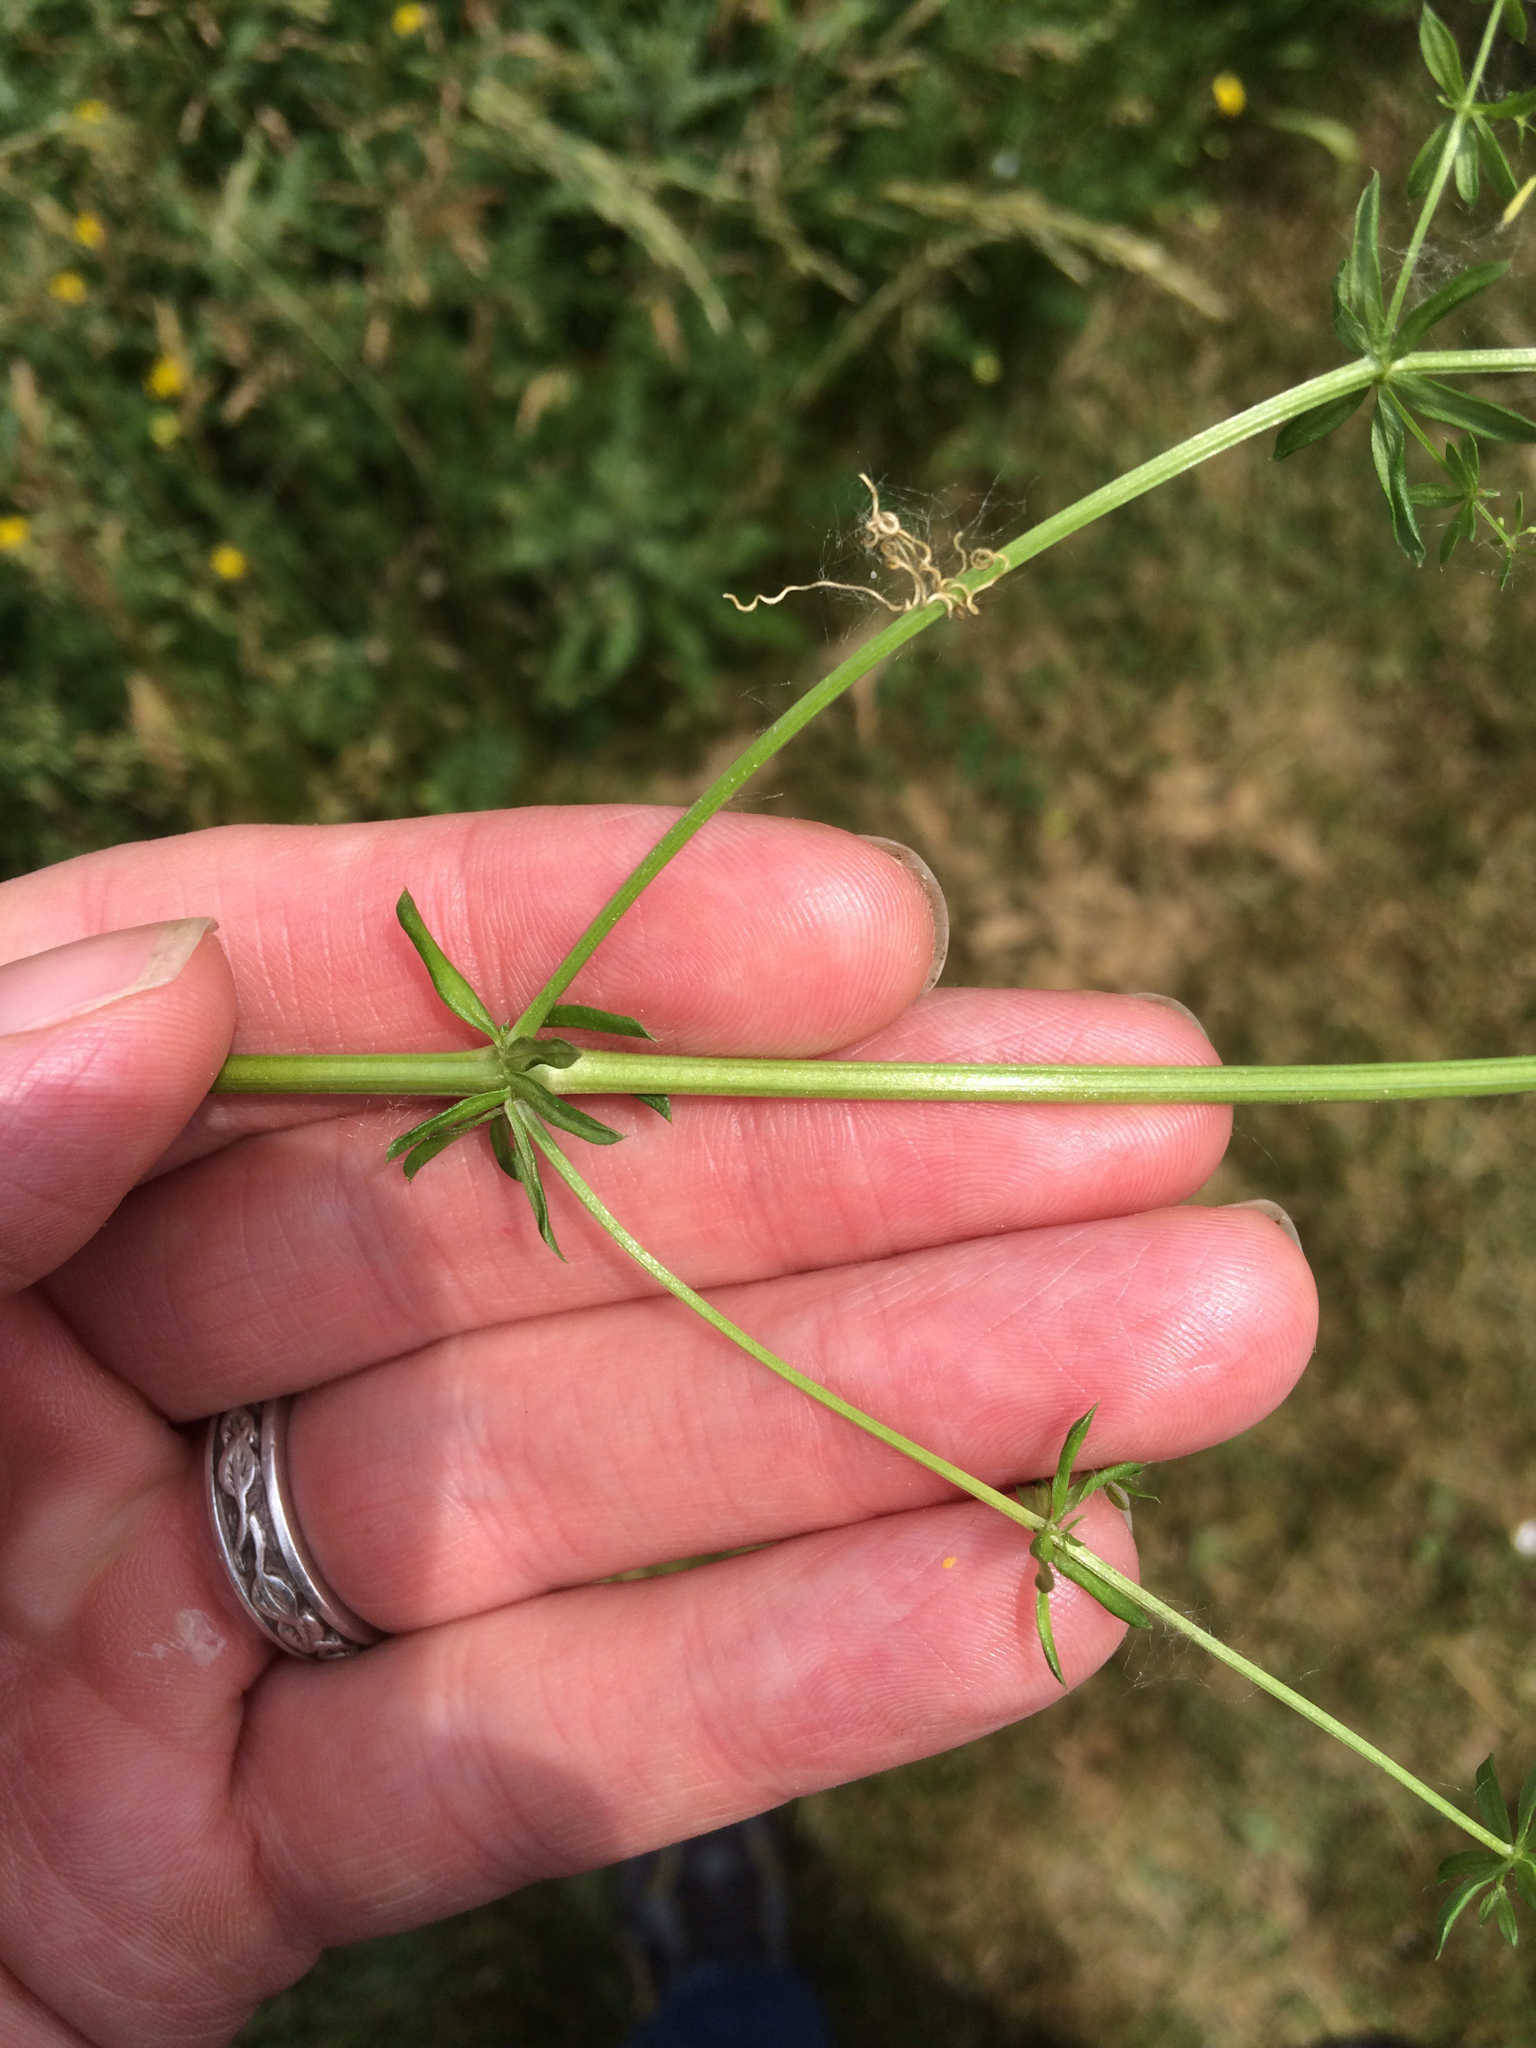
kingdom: Plantae
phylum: Tracheophyta
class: Magnoliopsida
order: Gentianales
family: Rubiaceae
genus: Galium
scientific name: Galium mollugo
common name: Hedge bedstraw
